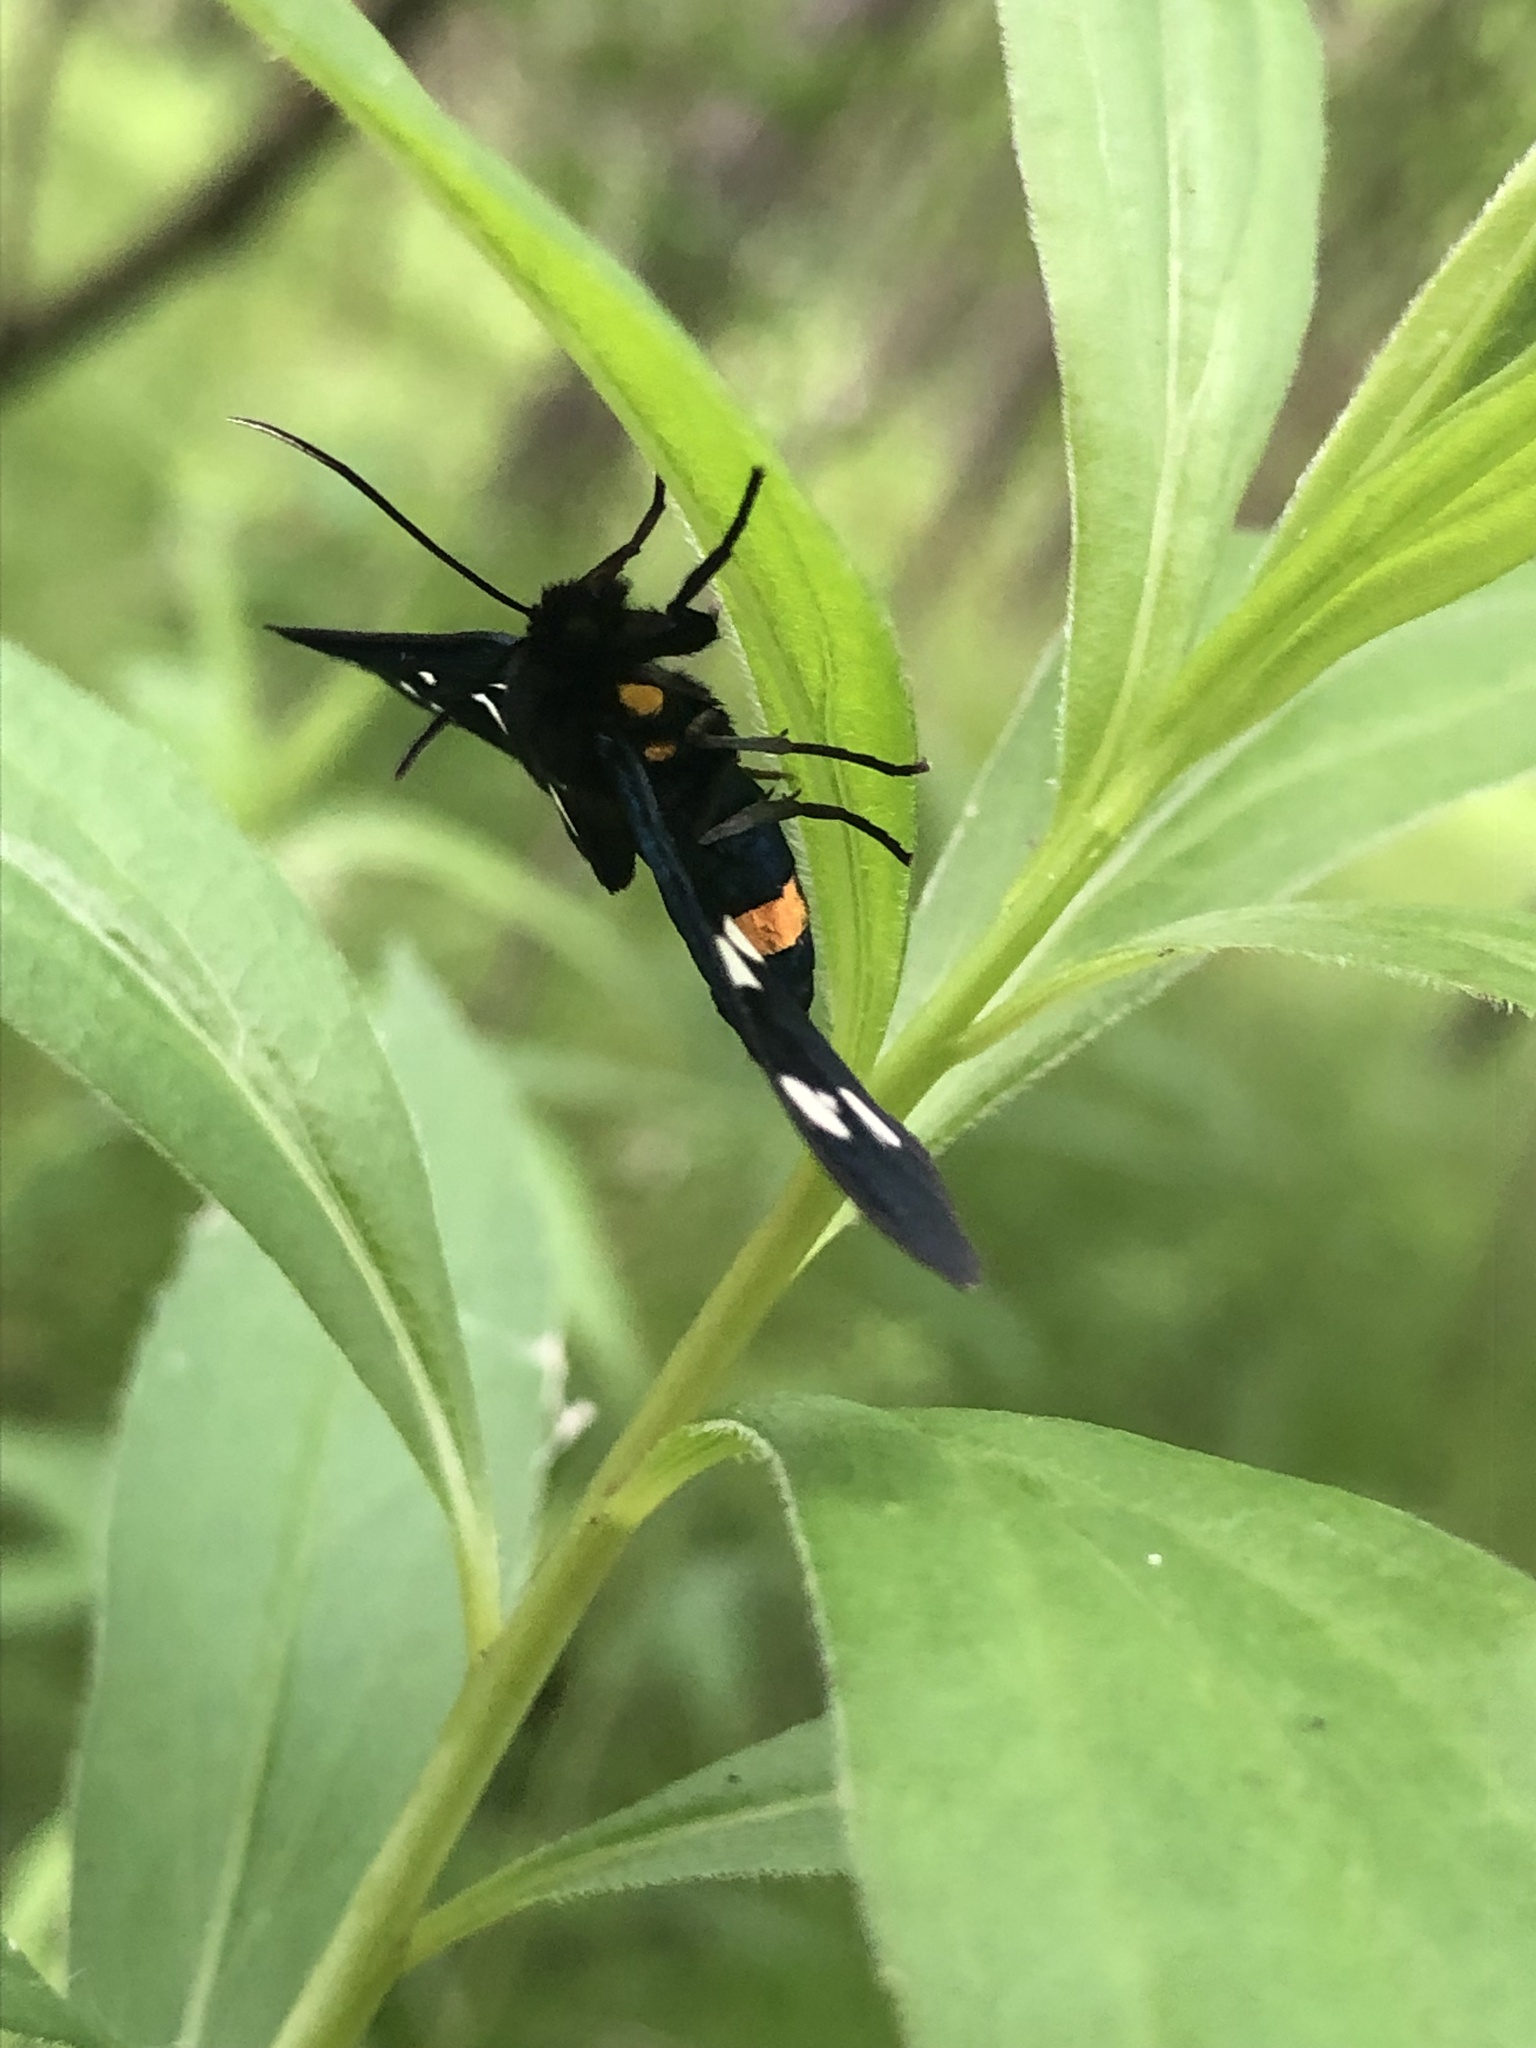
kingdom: Animalia
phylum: Arthropoda
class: Insecta
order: Lepidoptera
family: Erebidae
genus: Amata
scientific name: Amata phegea
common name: Nine-spotted
